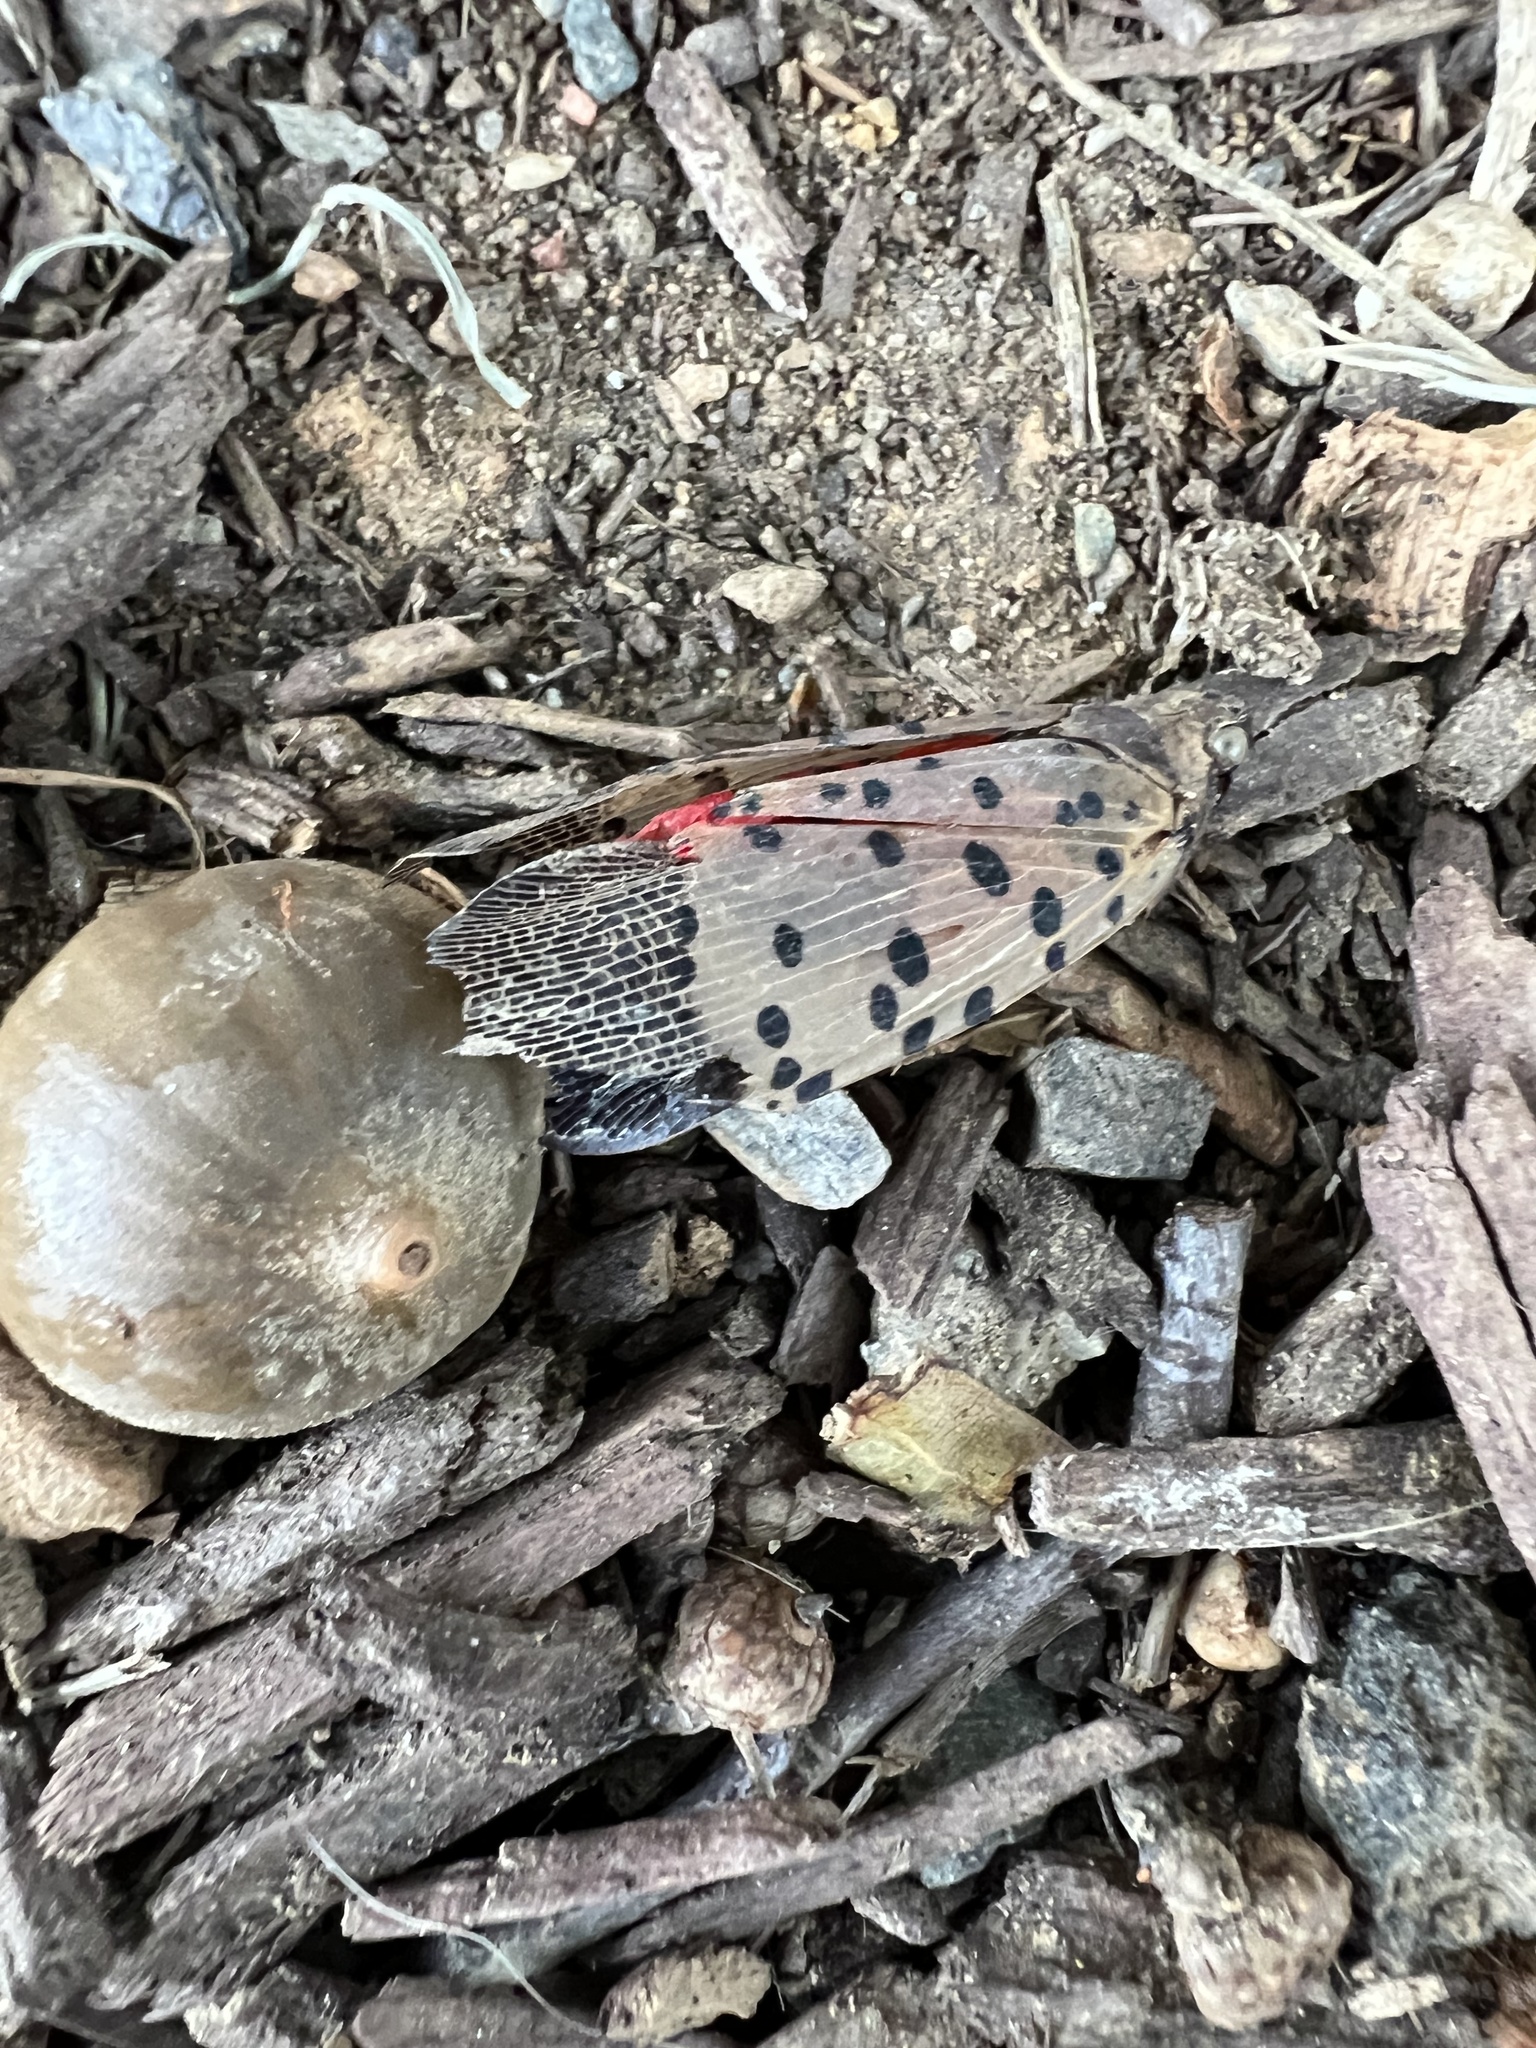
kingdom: Animalia
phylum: Arthropoda
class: Insecta
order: Hemiptera
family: Fulgoridae
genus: Lycorma
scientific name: Lycorma delicatula
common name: Spotted lanternfly
